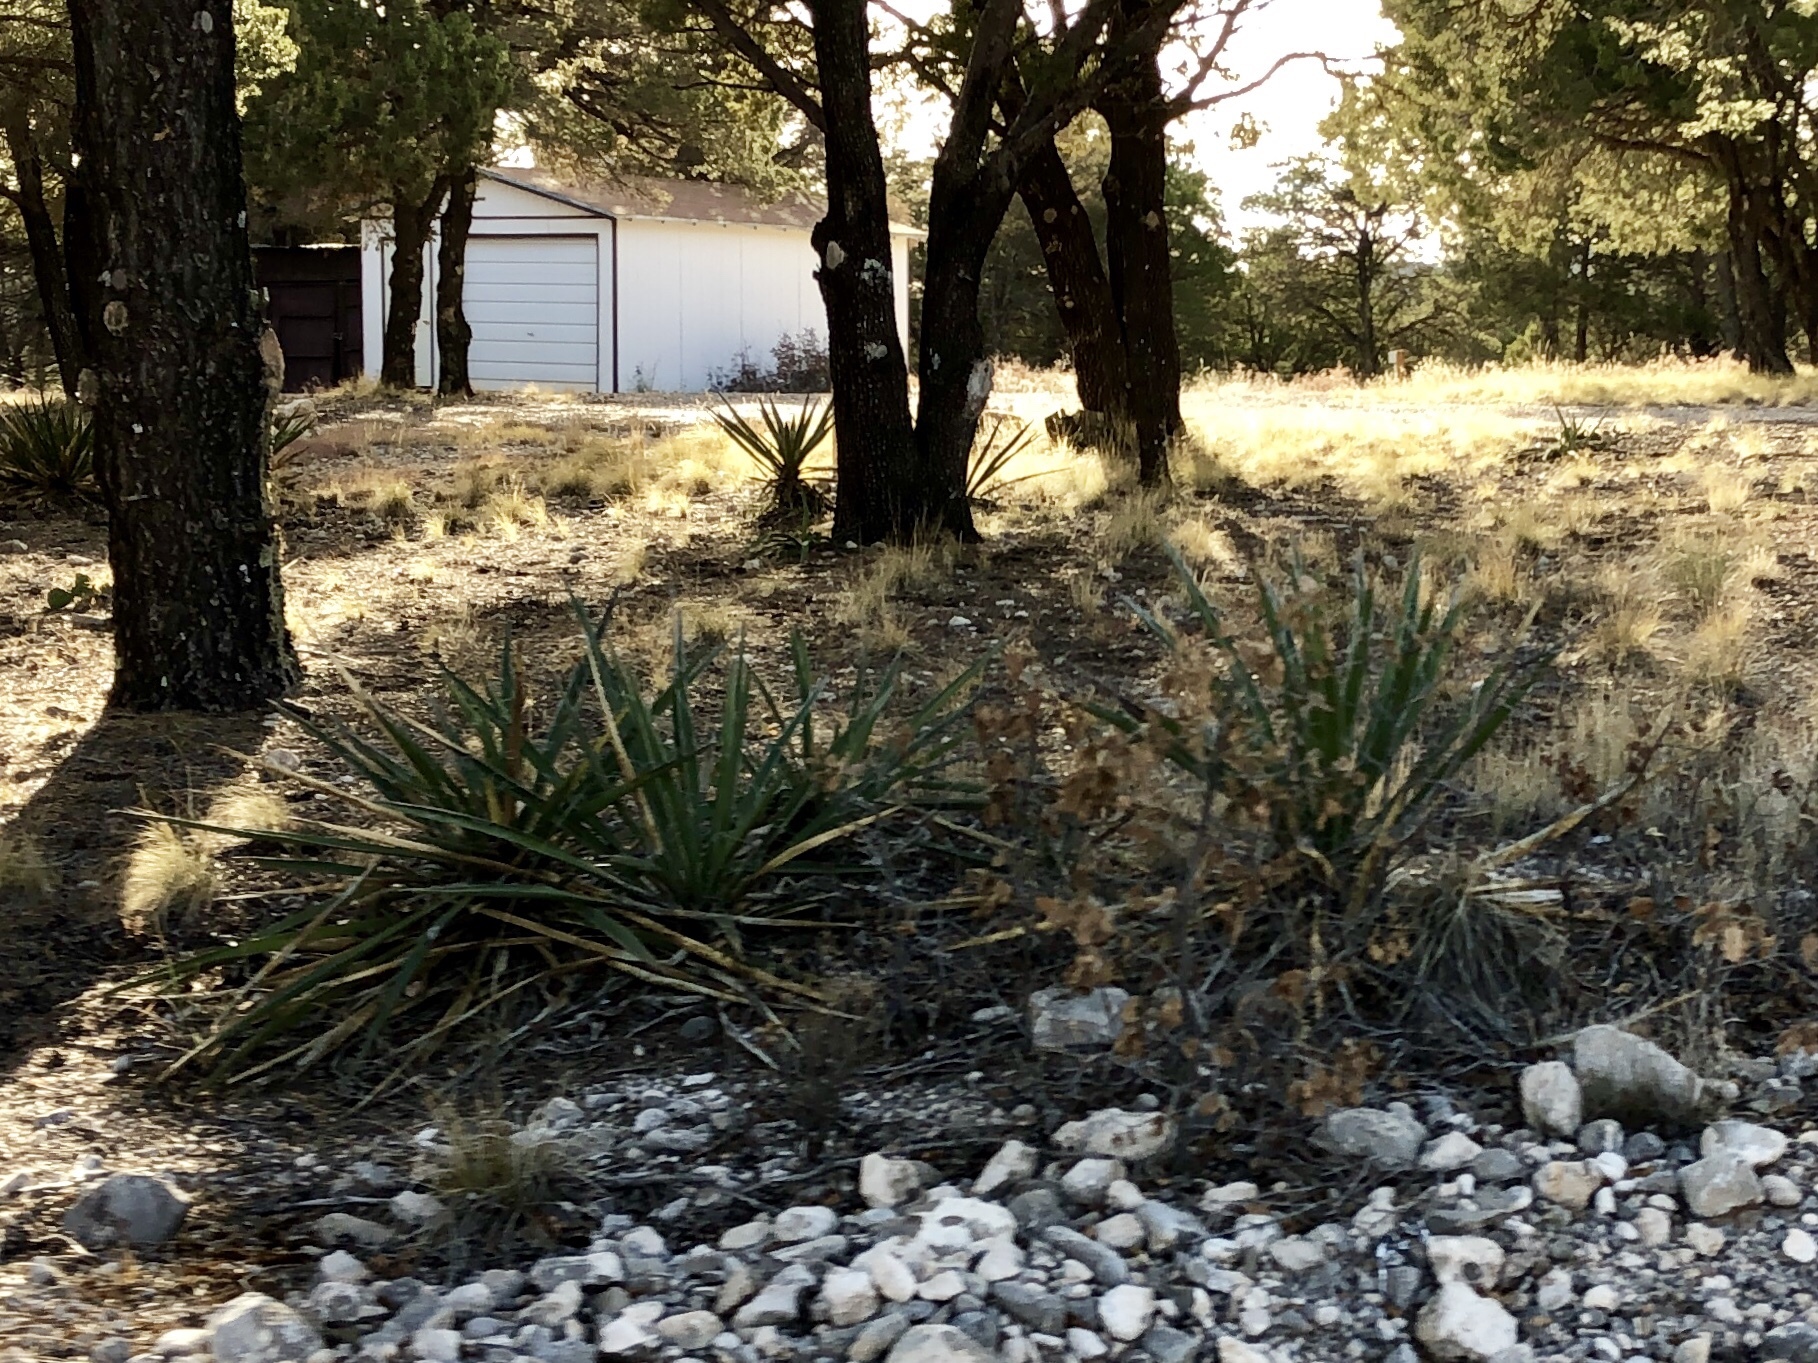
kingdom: Plantae
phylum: Tracheophyta
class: Liliopsida
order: Asparagales
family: Asparagaceae
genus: Yucca
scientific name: Yucca baccata
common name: Banana yucca
